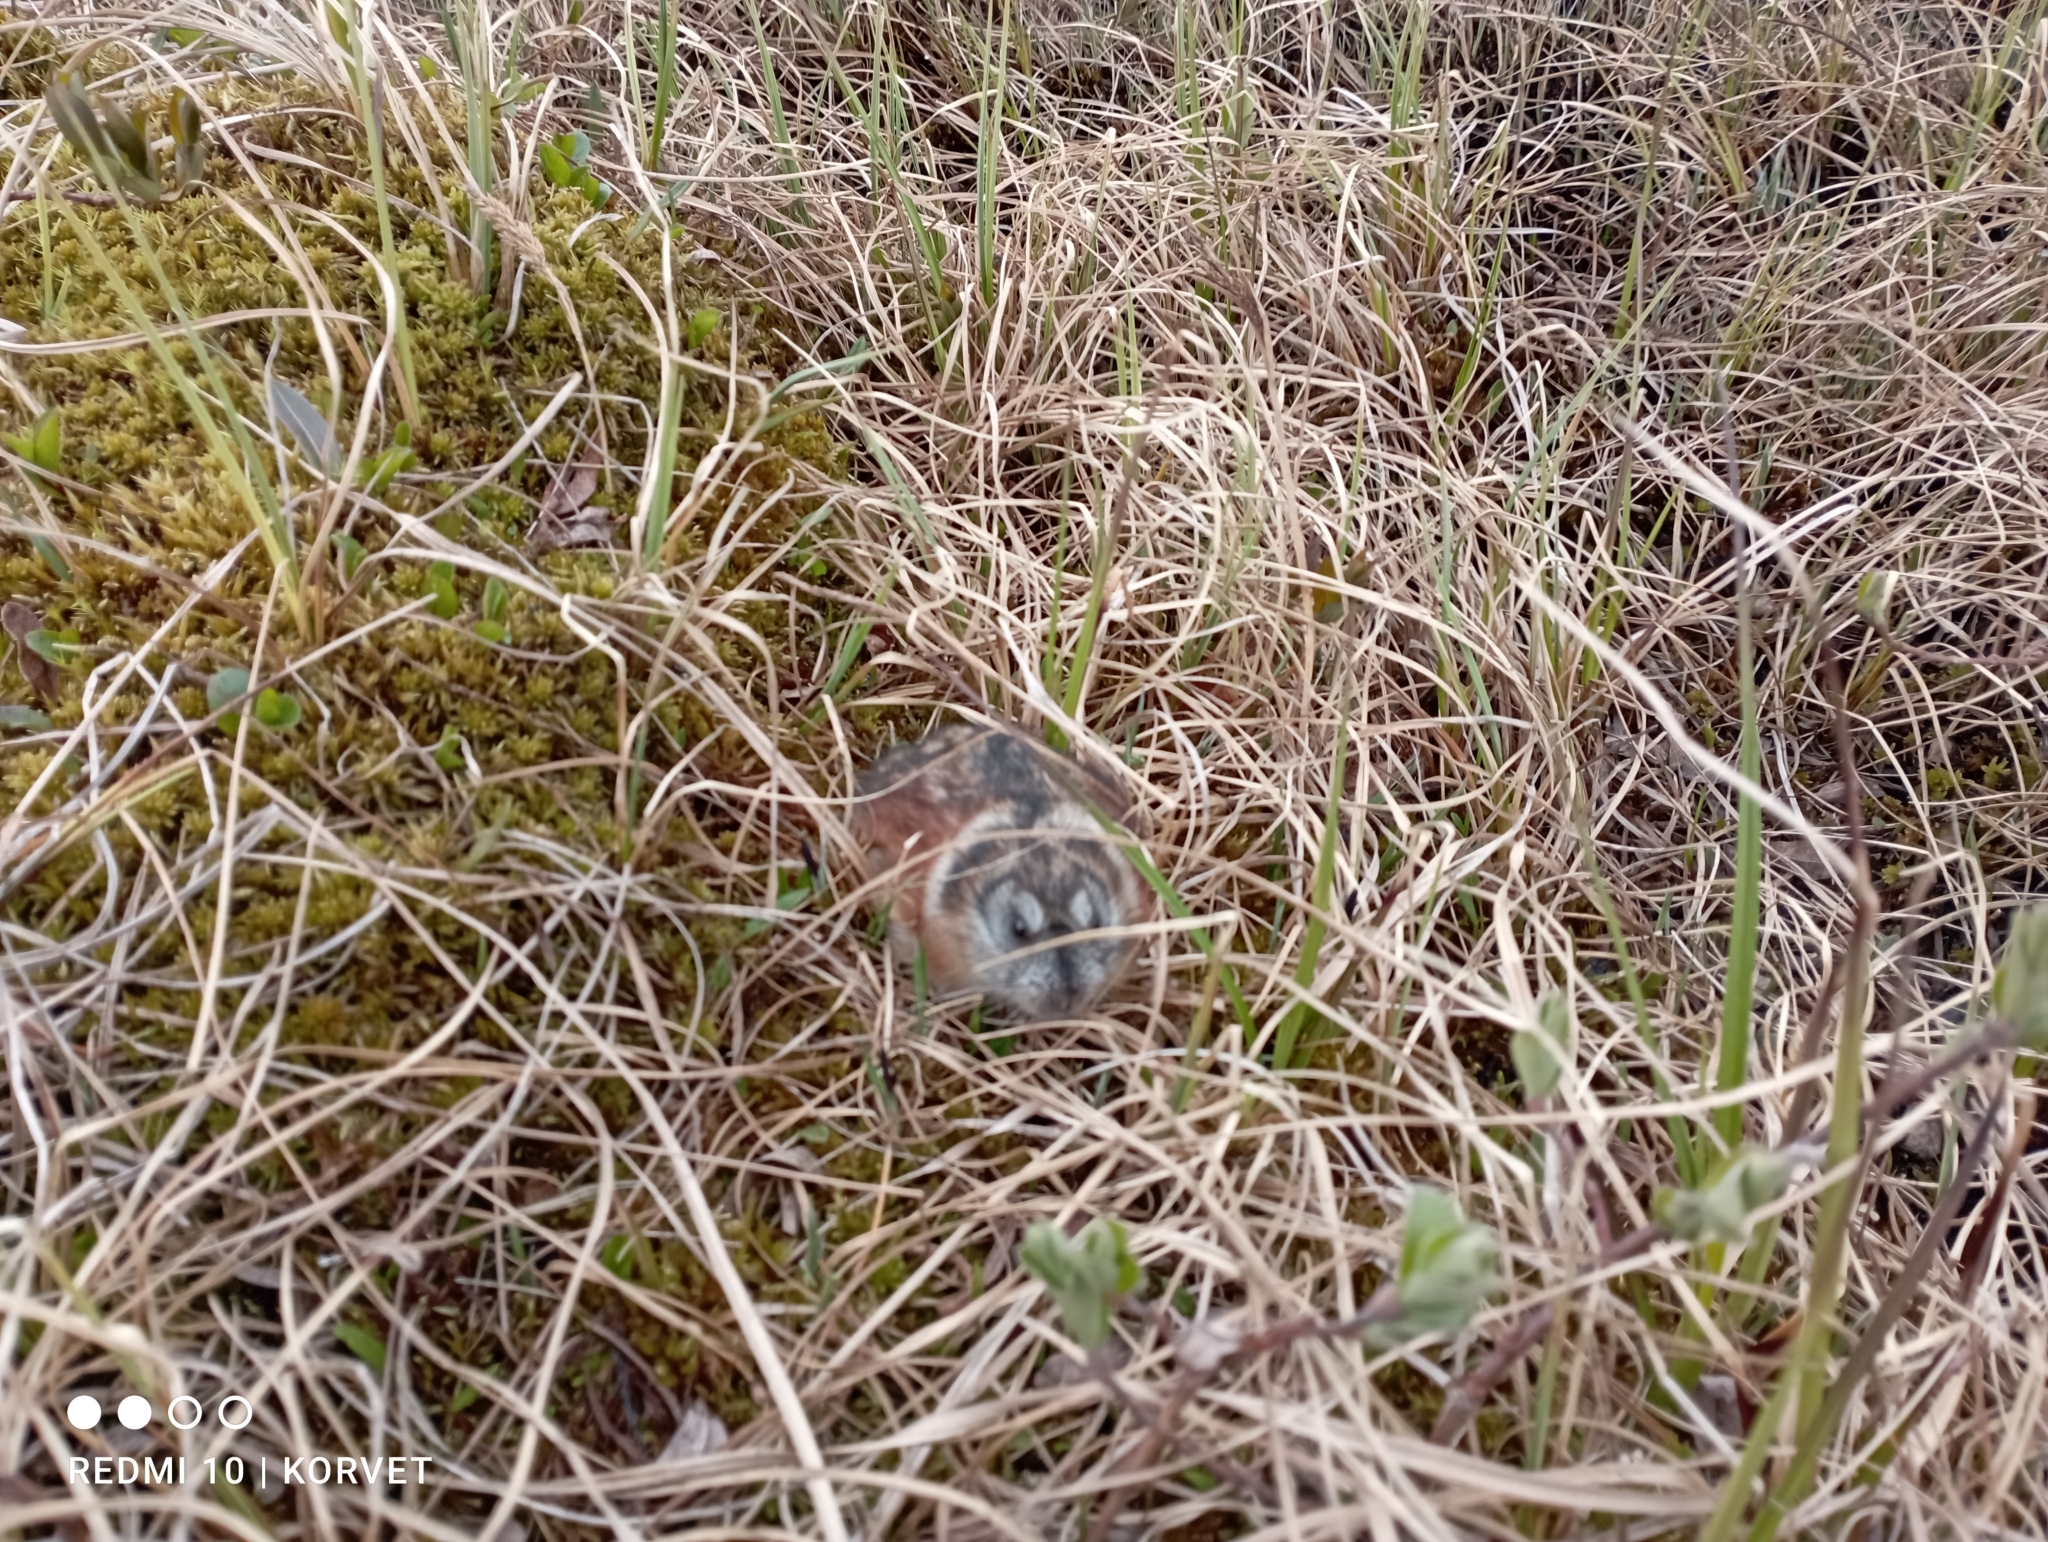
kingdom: Animalia
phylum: Chordata
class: Mammalia
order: Rodentia
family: Cricetidae
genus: Dicrostonyx
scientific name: Dicrostonyx torquatus
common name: Arctic lemming
